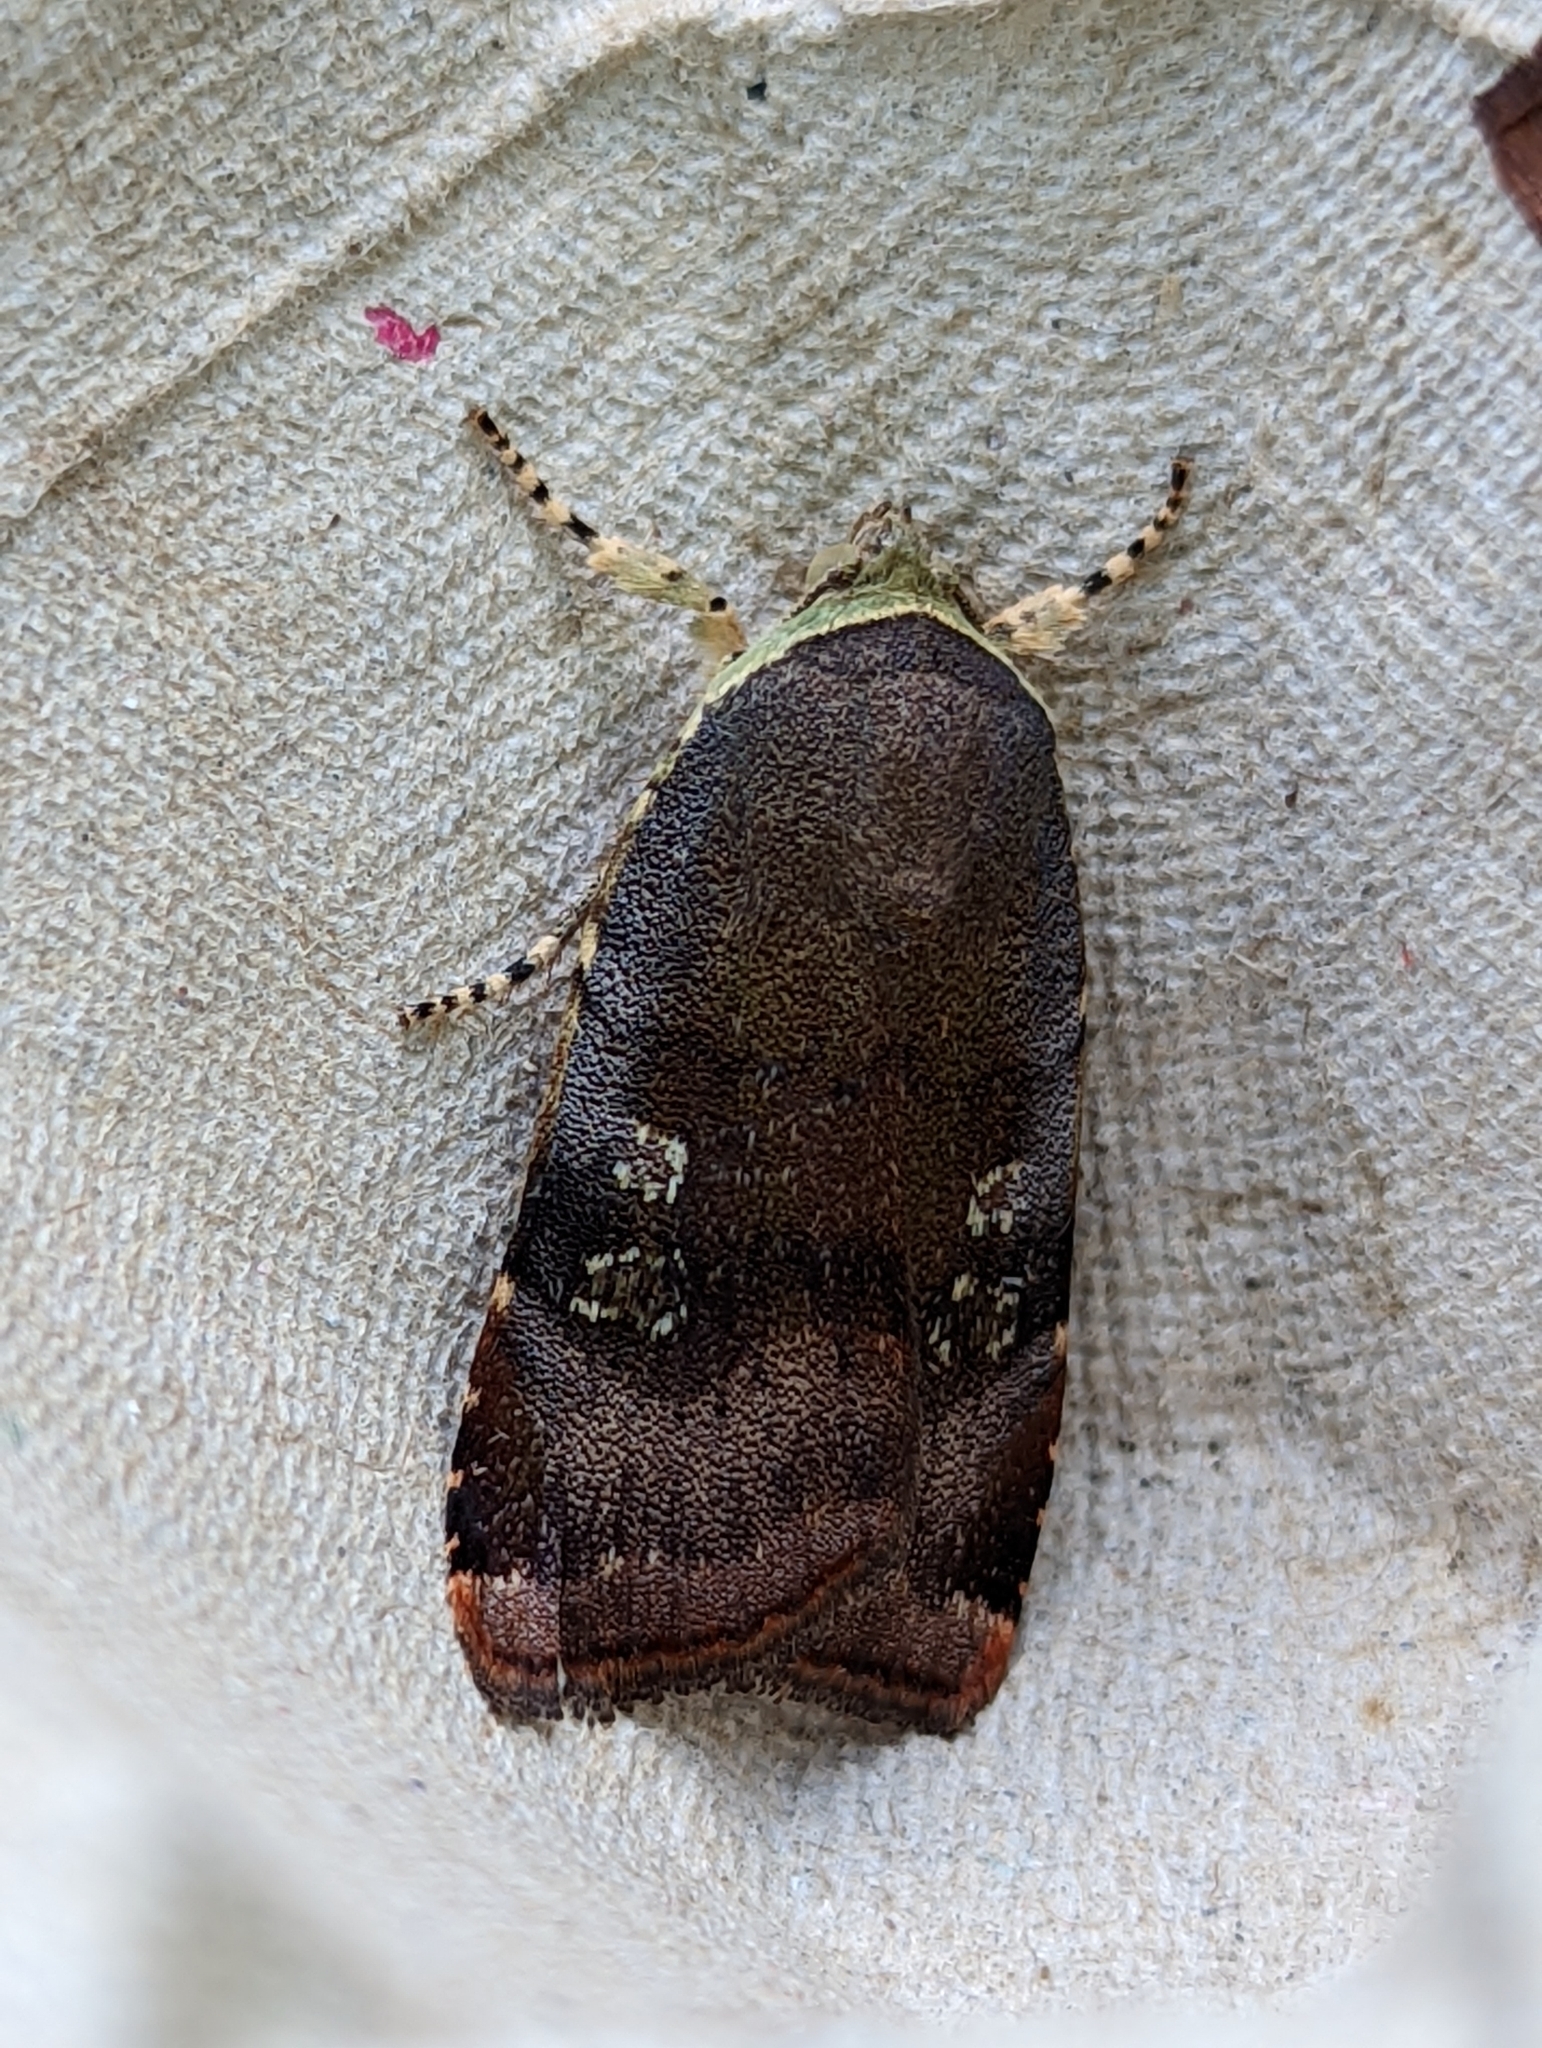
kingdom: Animalia
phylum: Arthropoda
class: Insecta
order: Lepidoptera
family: Noctuidae
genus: Noctua
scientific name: Noctua janthe
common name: Lesser broad-bordered yellow underwing
